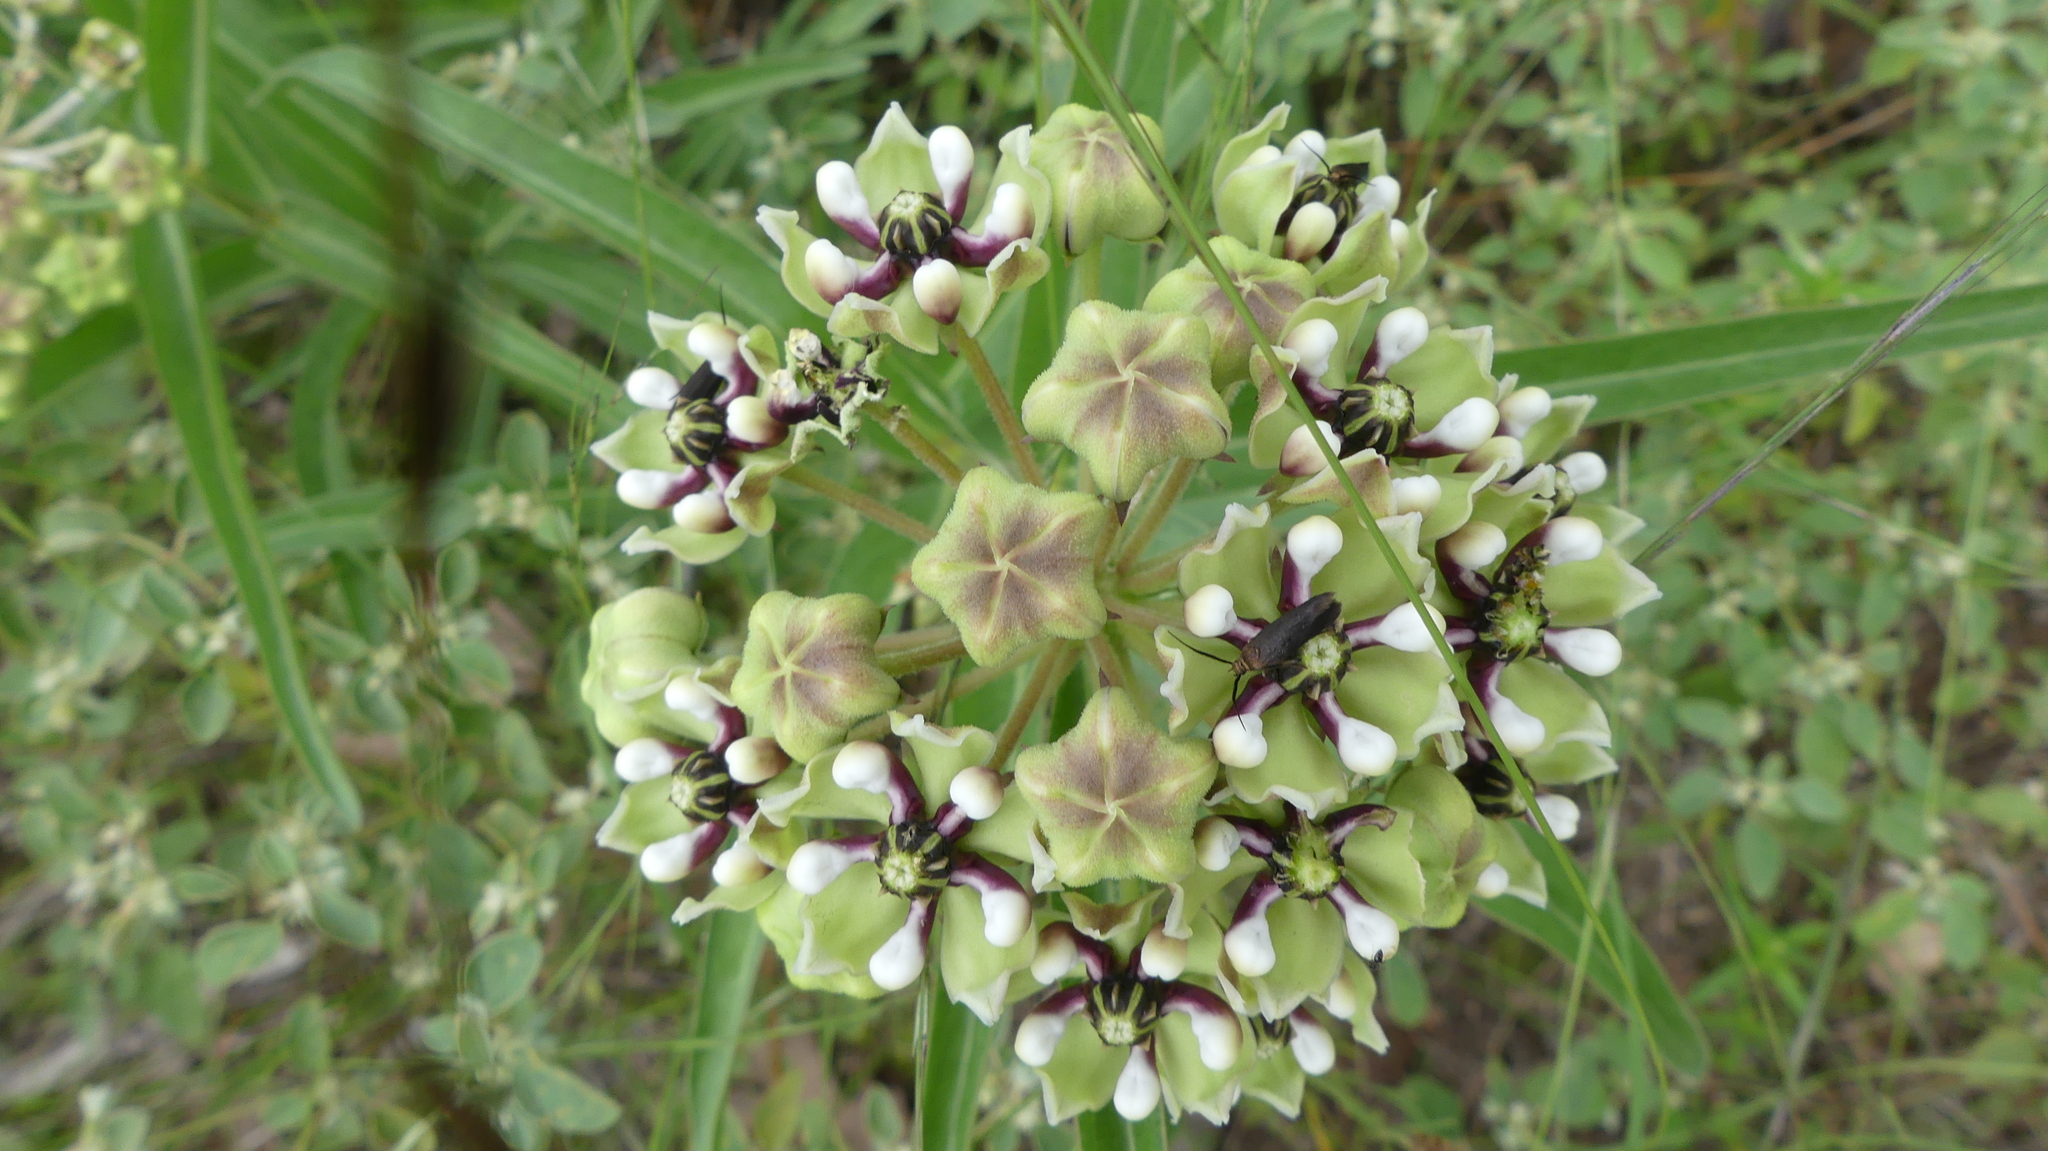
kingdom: Plantae
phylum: Tracheophyta
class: Magnoliopsida
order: Gentianales
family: Apocynaceae
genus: Asclepias
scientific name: Asclepias asperula
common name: Antelope horns
